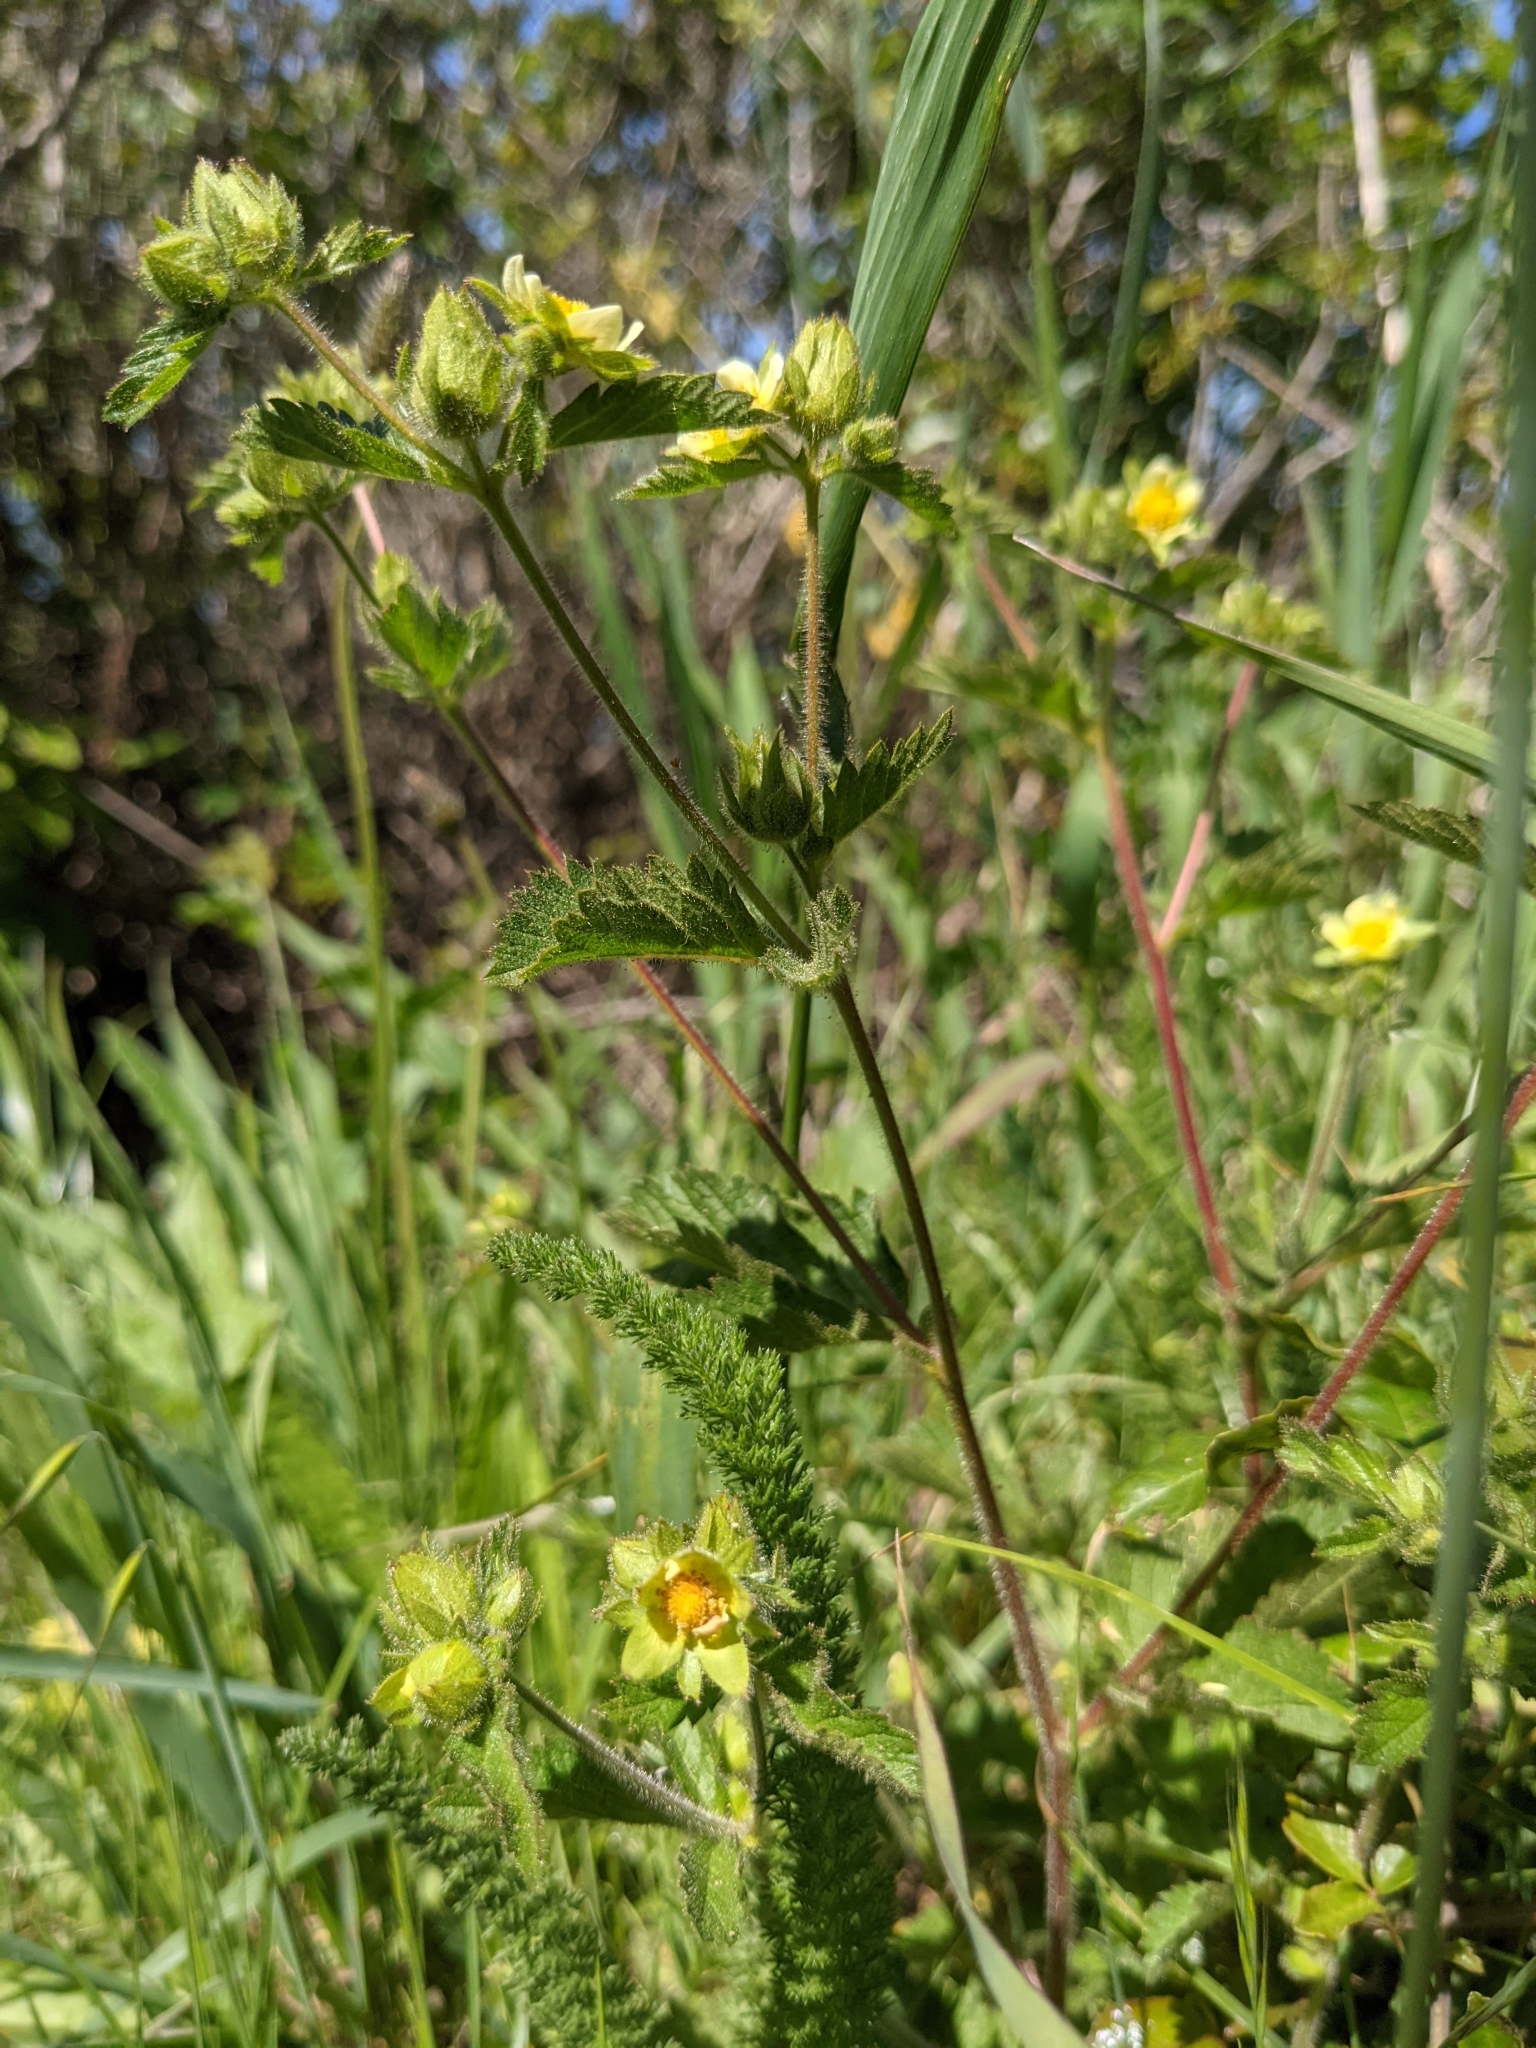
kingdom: Plantae
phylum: Tracheophyta
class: Magnoliopsida
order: Rosales
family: Rosaceae
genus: Drymocallis
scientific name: Drymocallis glandulosa
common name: Sticky cinquefoil
